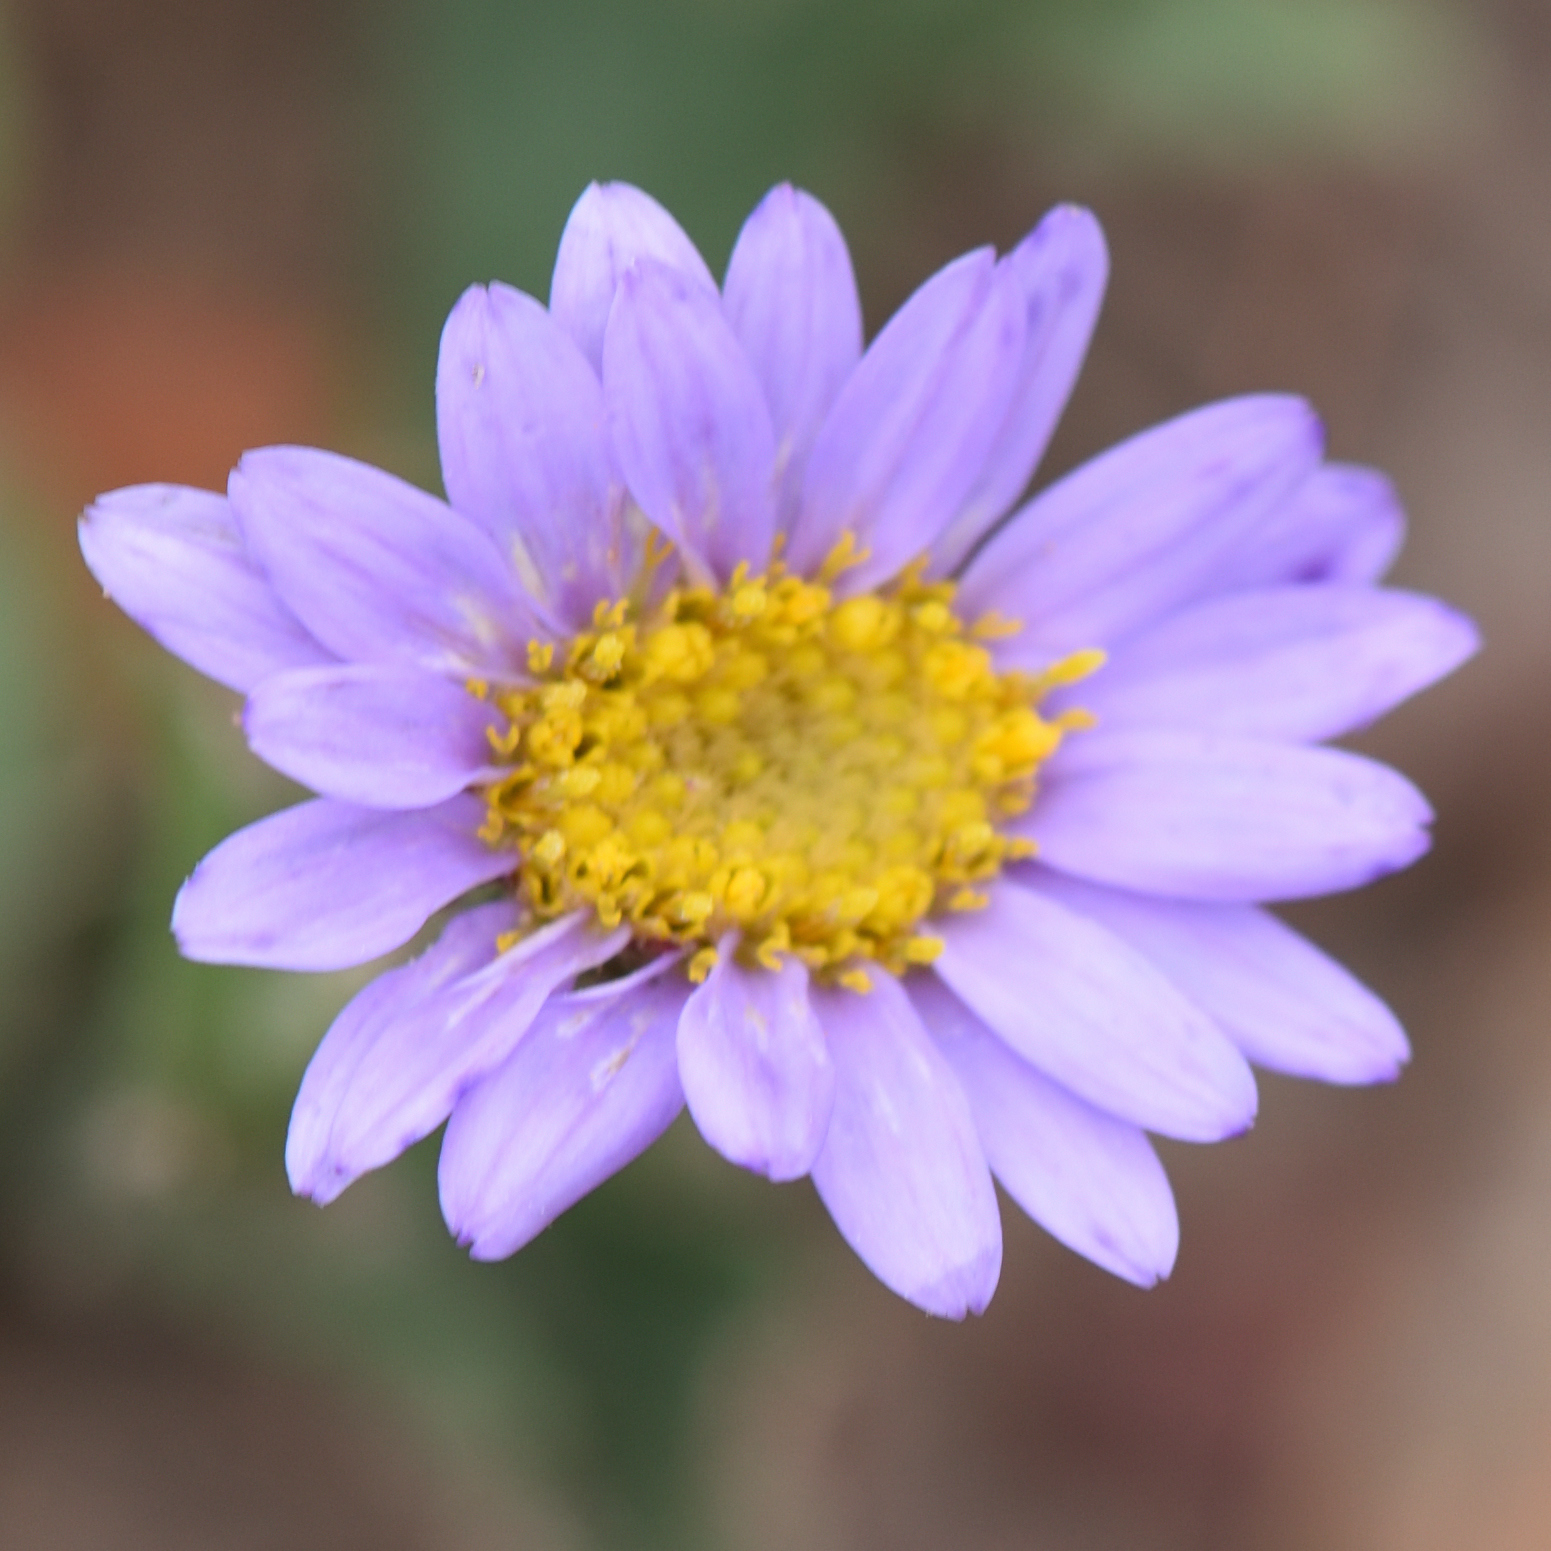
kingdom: Plantae
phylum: Tracheophyta
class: Magnoliopsida
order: Asterales
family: Asteraceae
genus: Afroaster
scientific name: Afroaster hispidus
